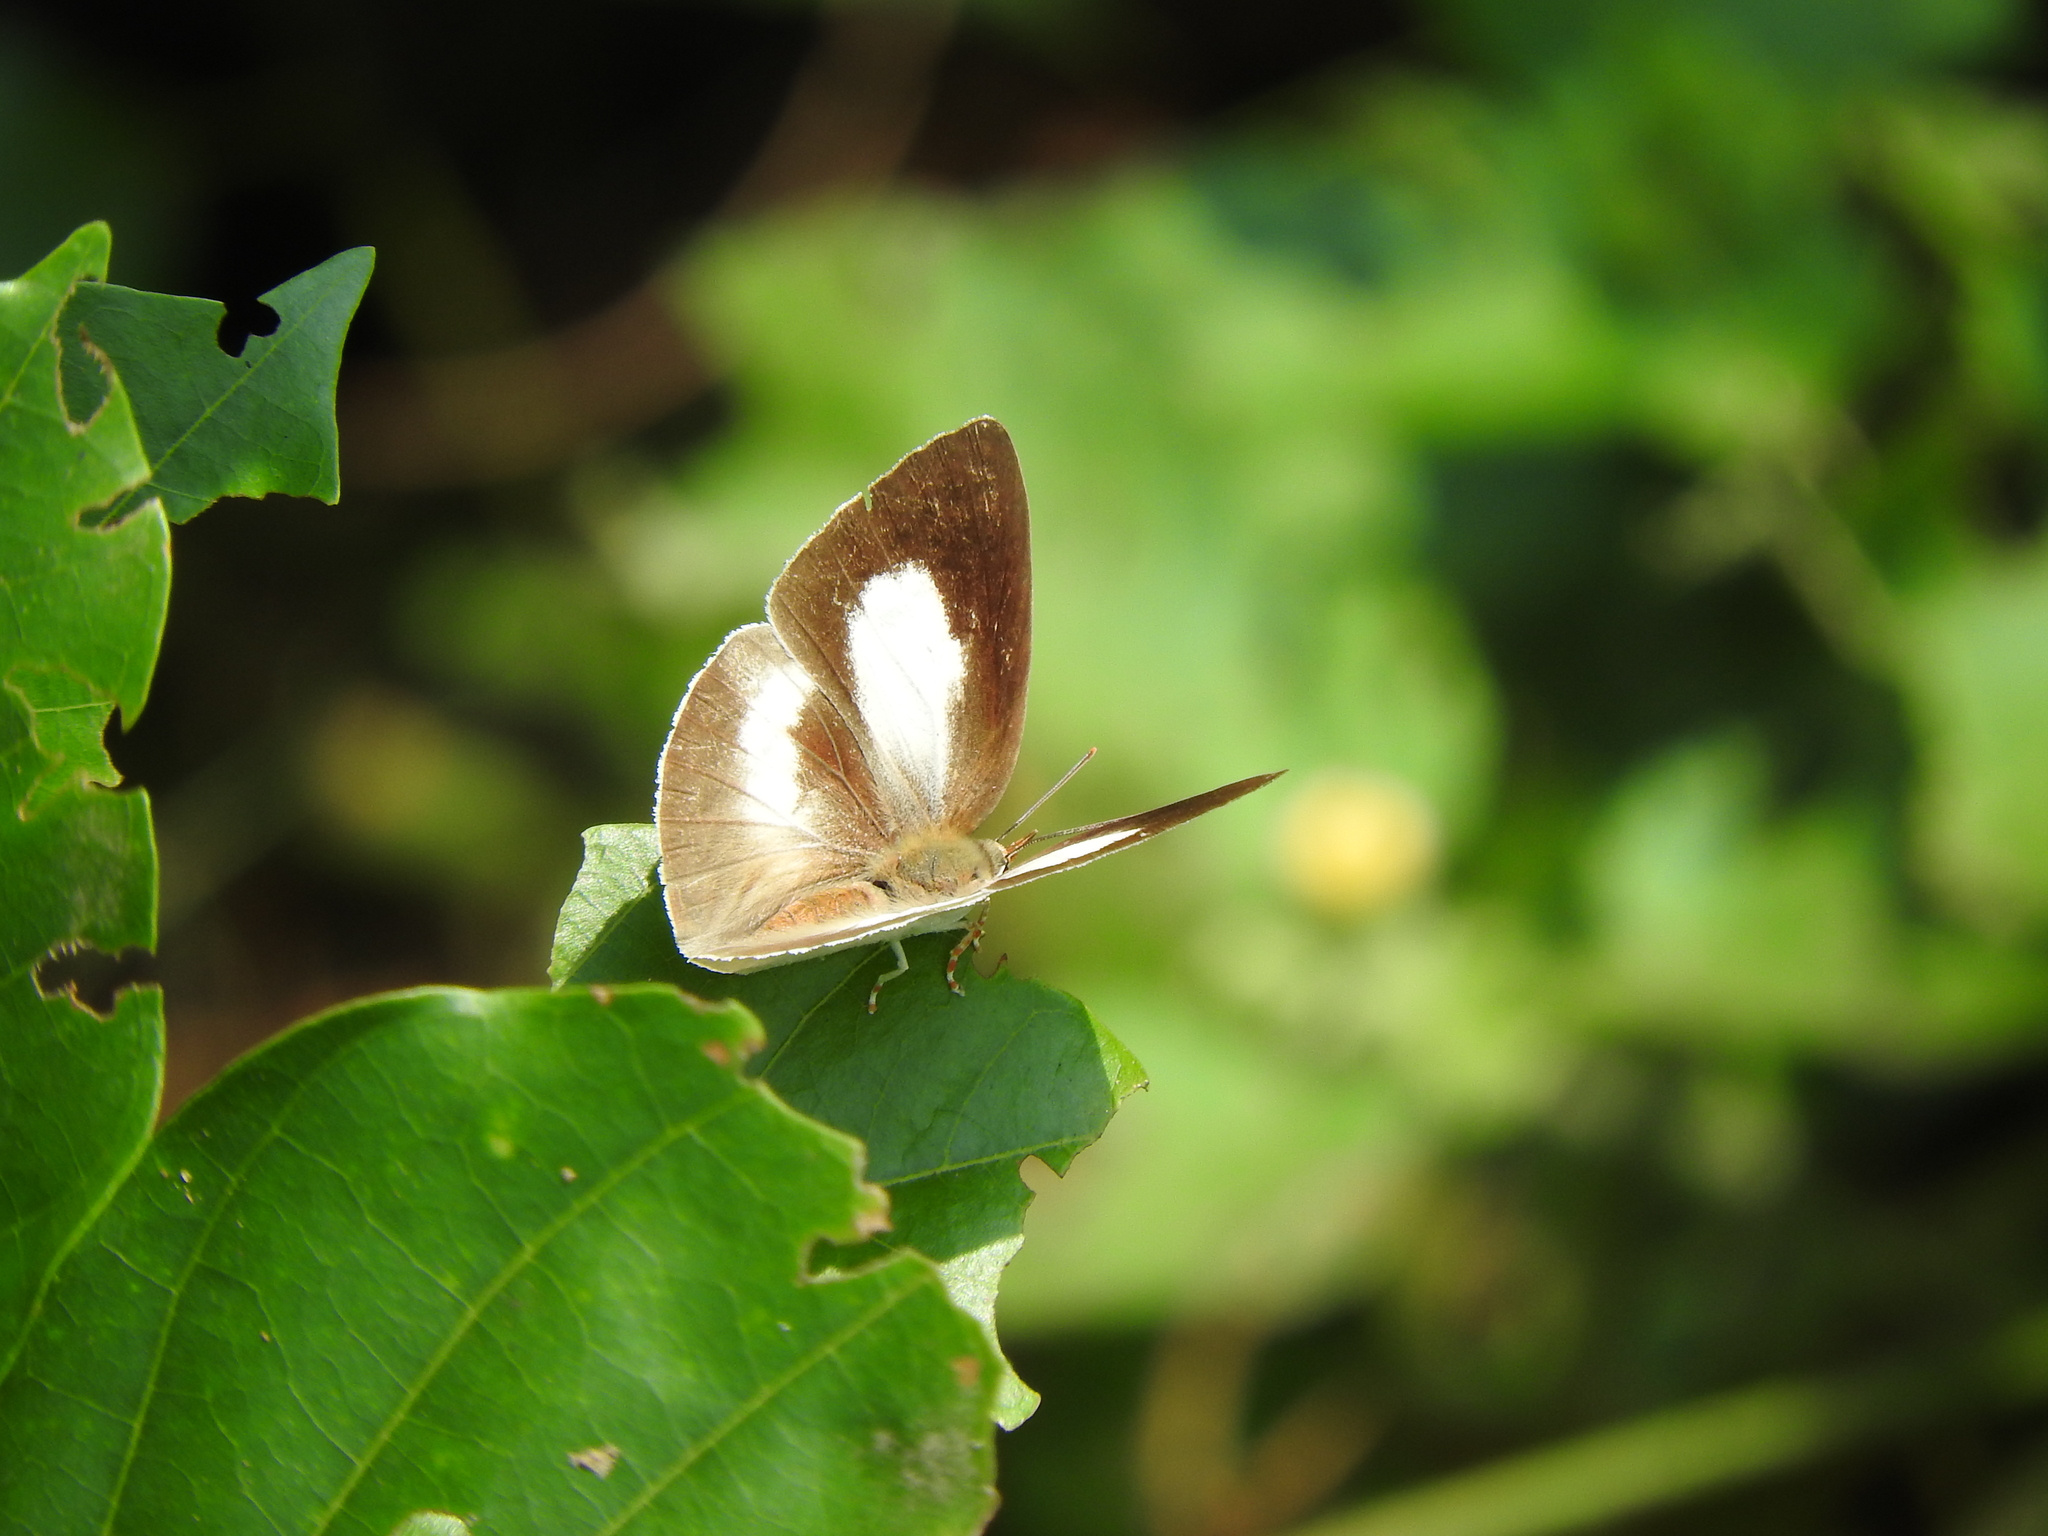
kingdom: Animalia
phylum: Arthropoda
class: Insecta
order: Lepidoptera
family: Lycaenidae
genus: Curetis
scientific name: Curetis thetis
